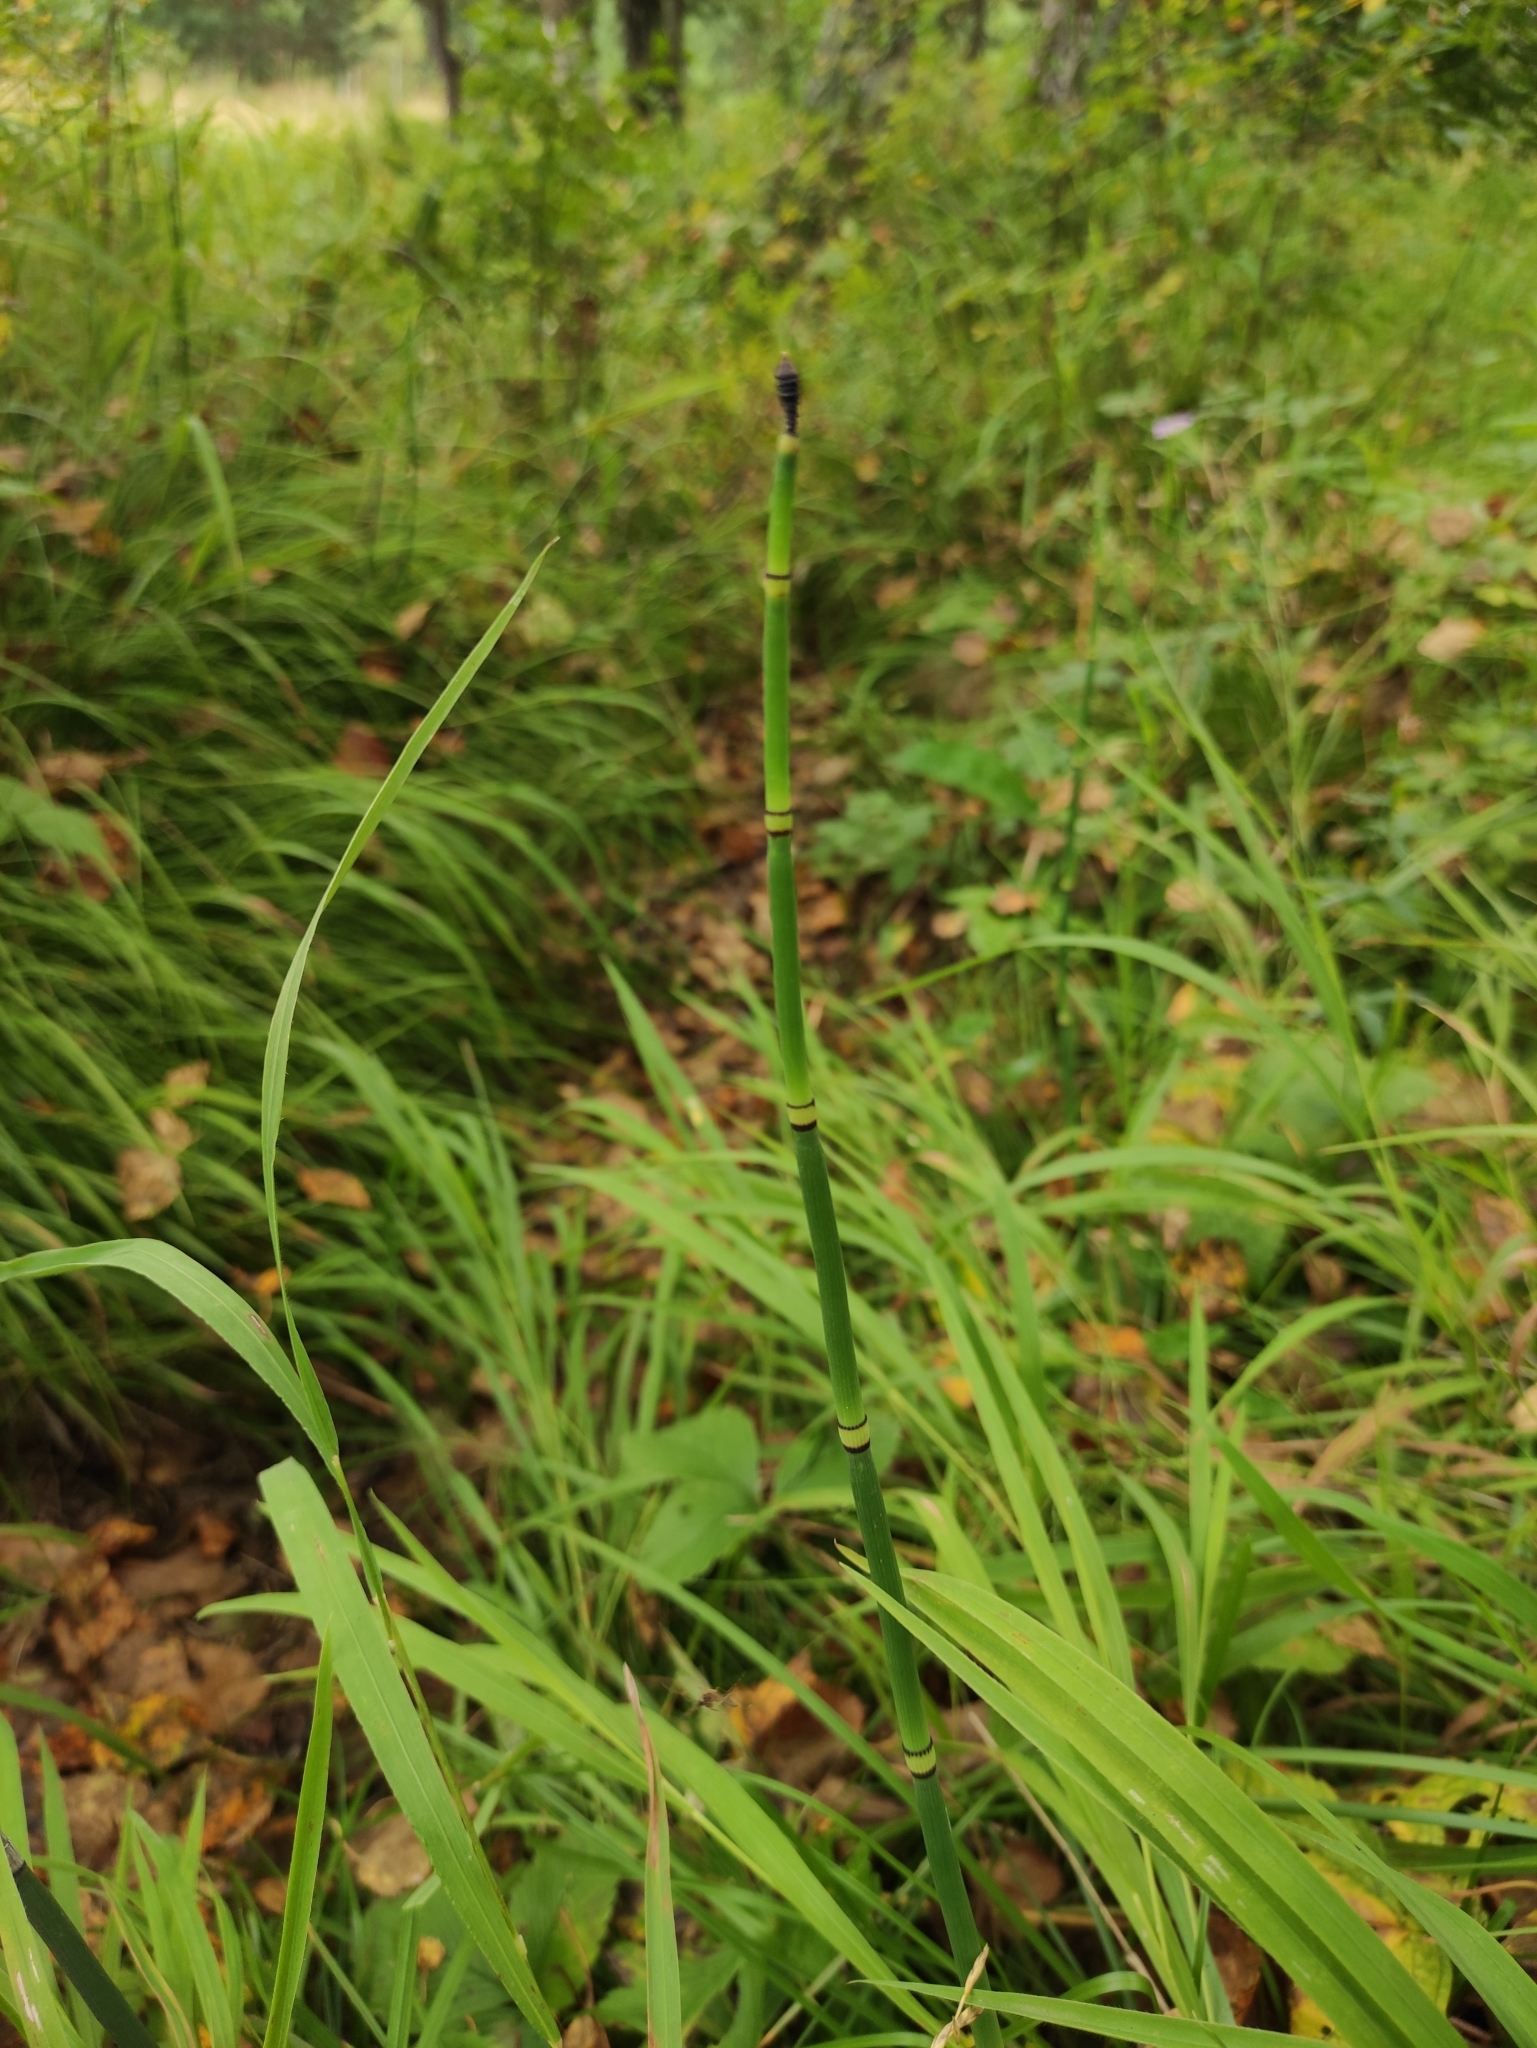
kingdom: Plantae
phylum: Tracheophyta
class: Polypodiopsida
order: Equisetales
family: Equisetaceae
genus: Equisetum
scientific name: Equisetum hyemale
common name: Rough horsetail
